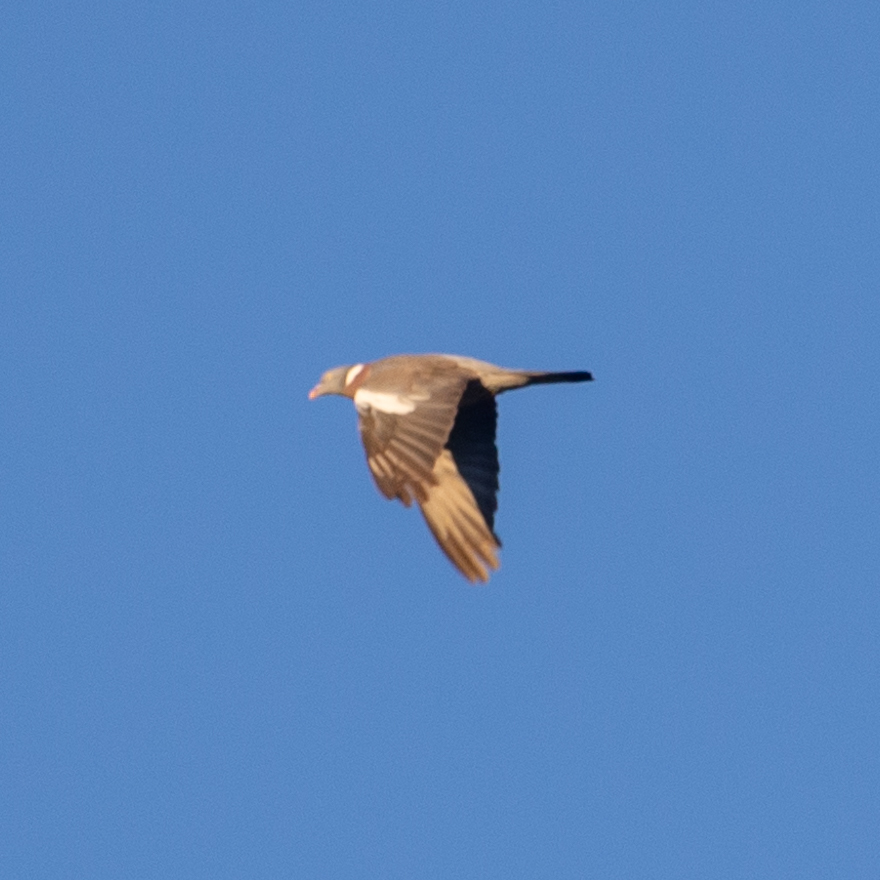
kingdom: Animalia
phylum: Chordata
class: Aves
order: Columbiformes
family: Columbidae
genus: Columba
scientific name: Columba palumbus
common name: Common wood pigeon
